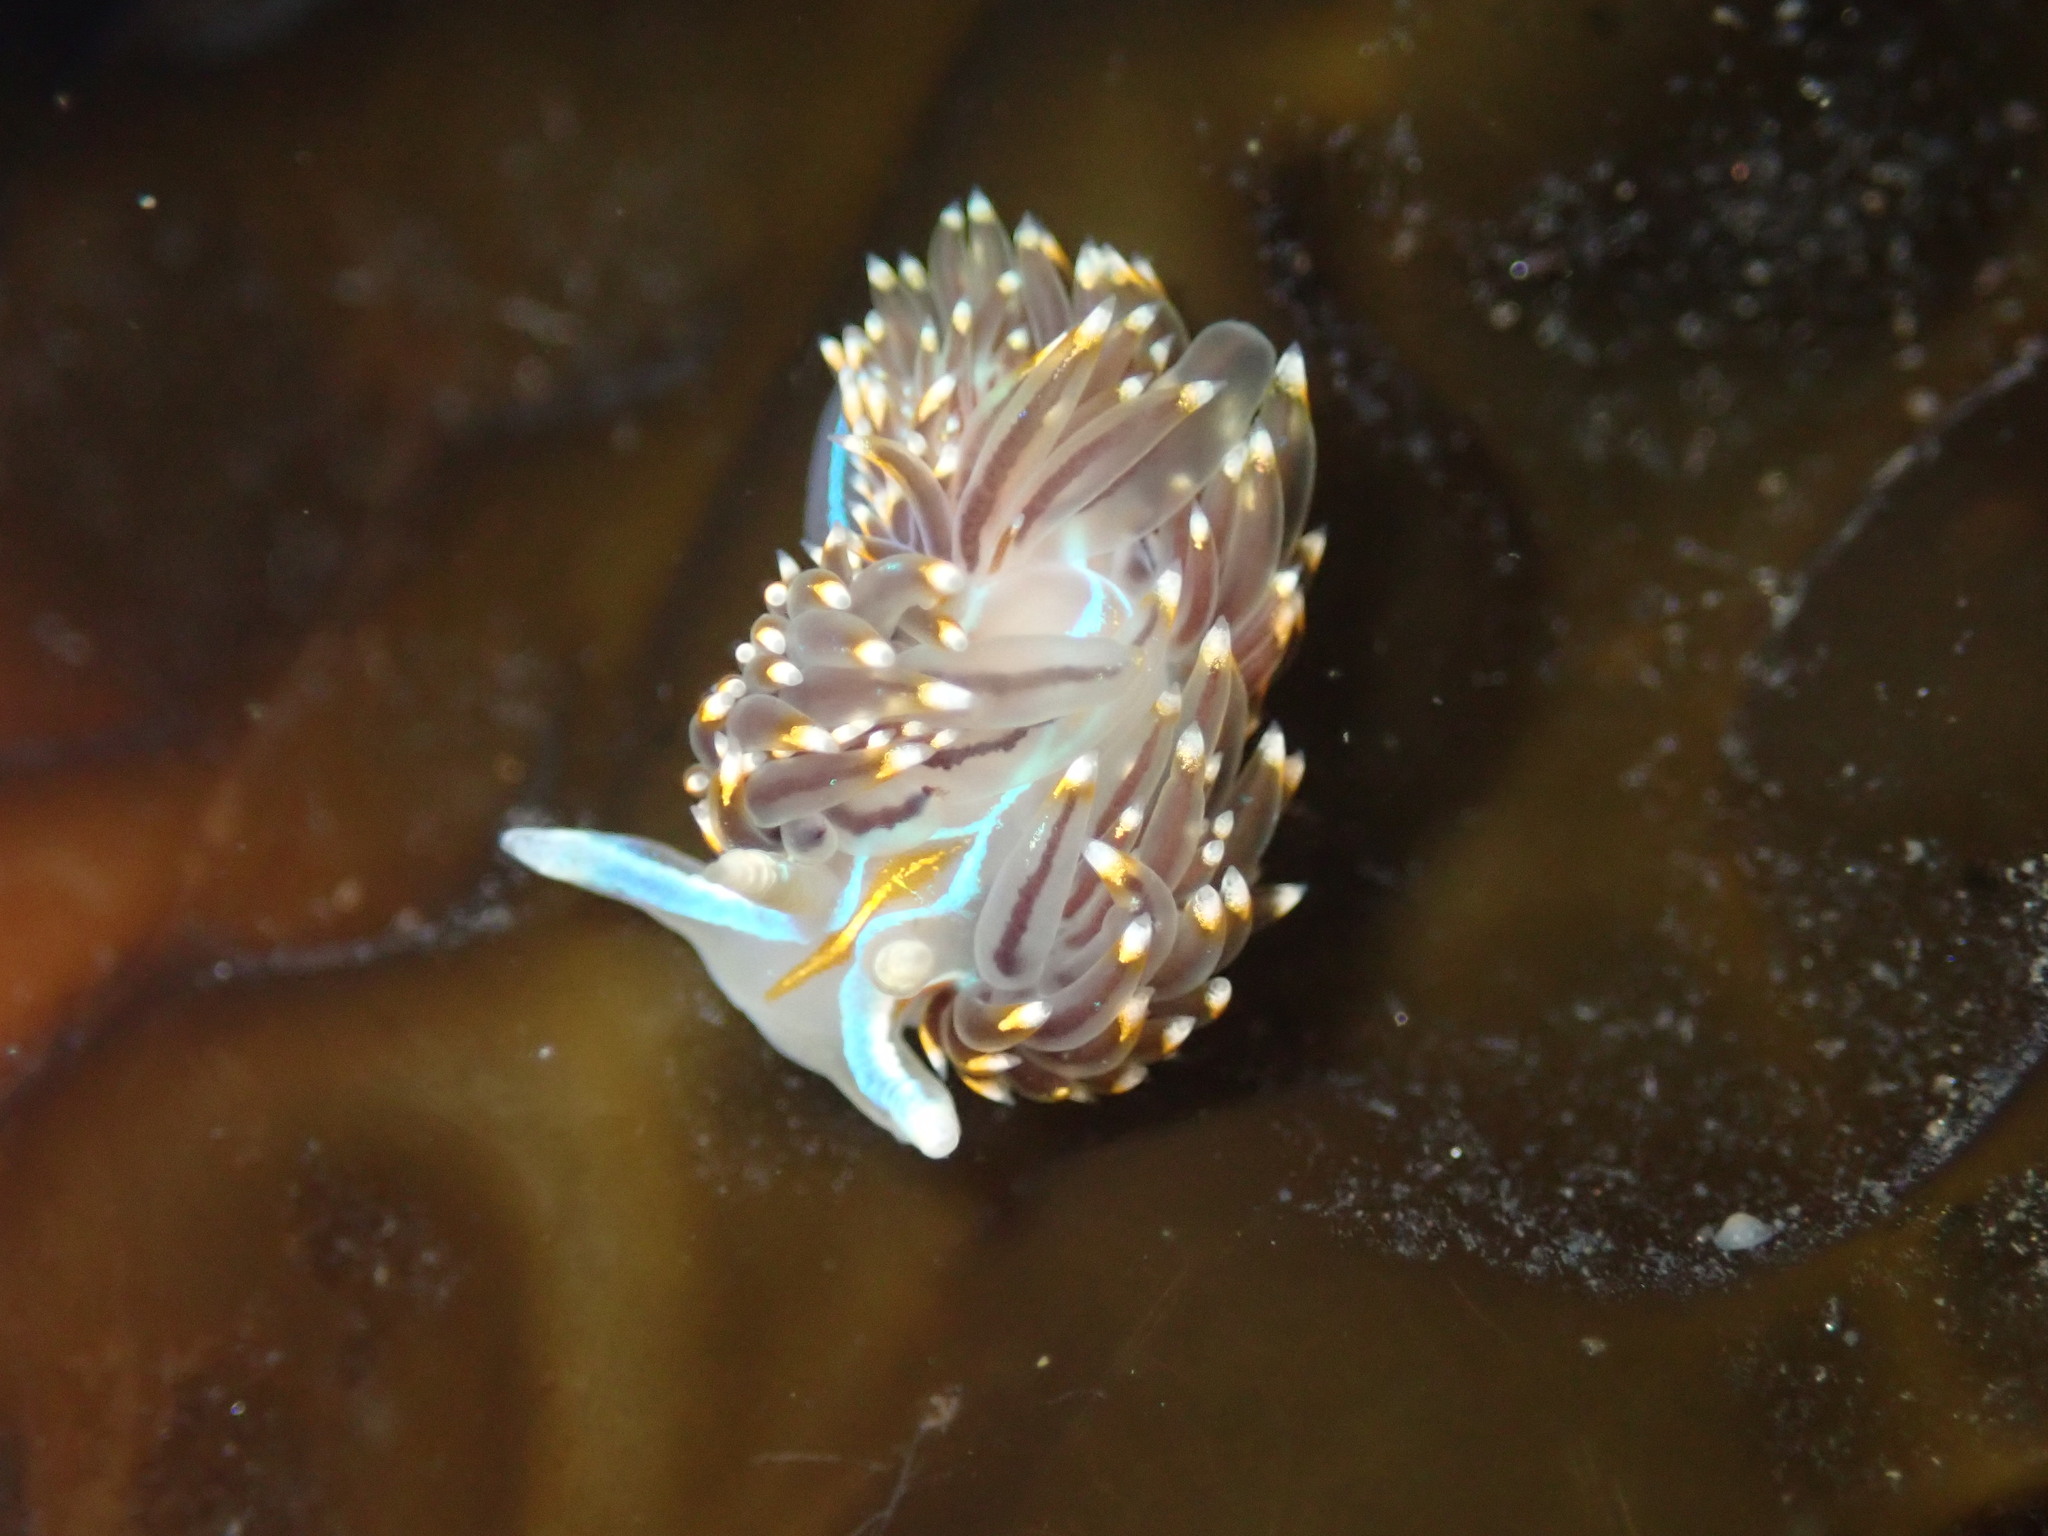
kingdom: Animalia
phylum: Mollusca
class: Gastropoda
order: Nudibranchia
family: Myrrhinidae
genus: Hermissenda
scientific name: Hermissenda opalescens
